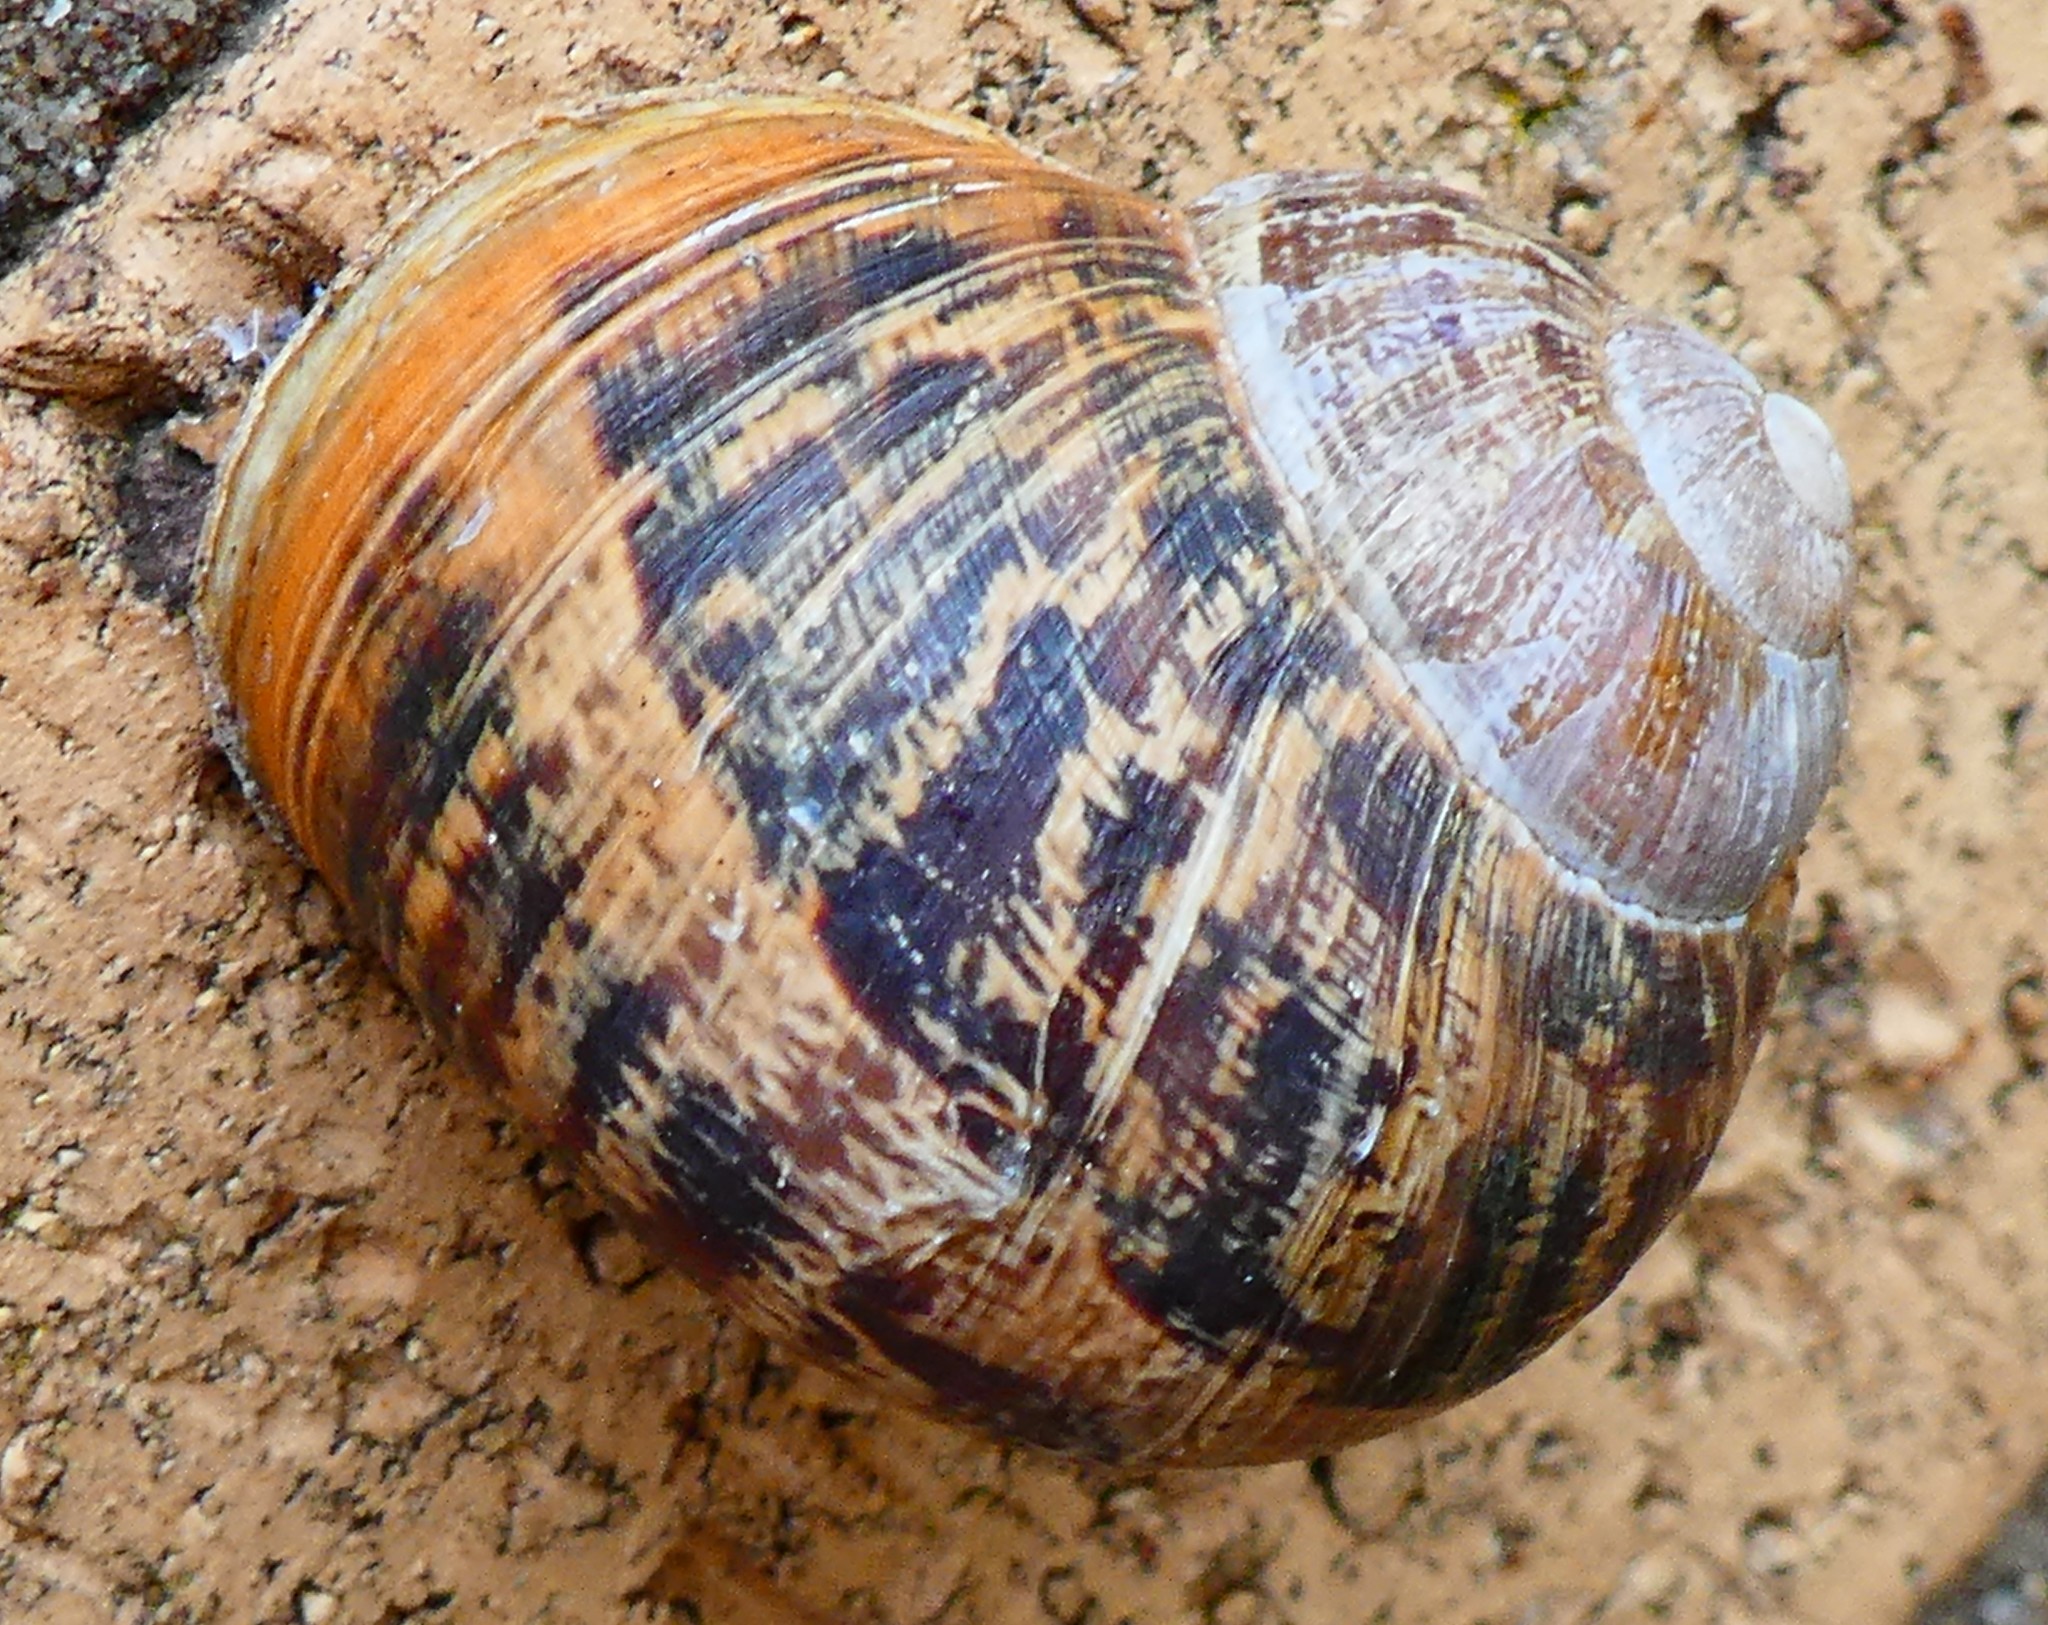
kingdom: Animalia
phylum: Mollusca
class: Gastropoda
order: Stylommatophora
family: Helicidae
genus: Cornu
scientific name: Cornu aspersum
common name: Brown garden snail
